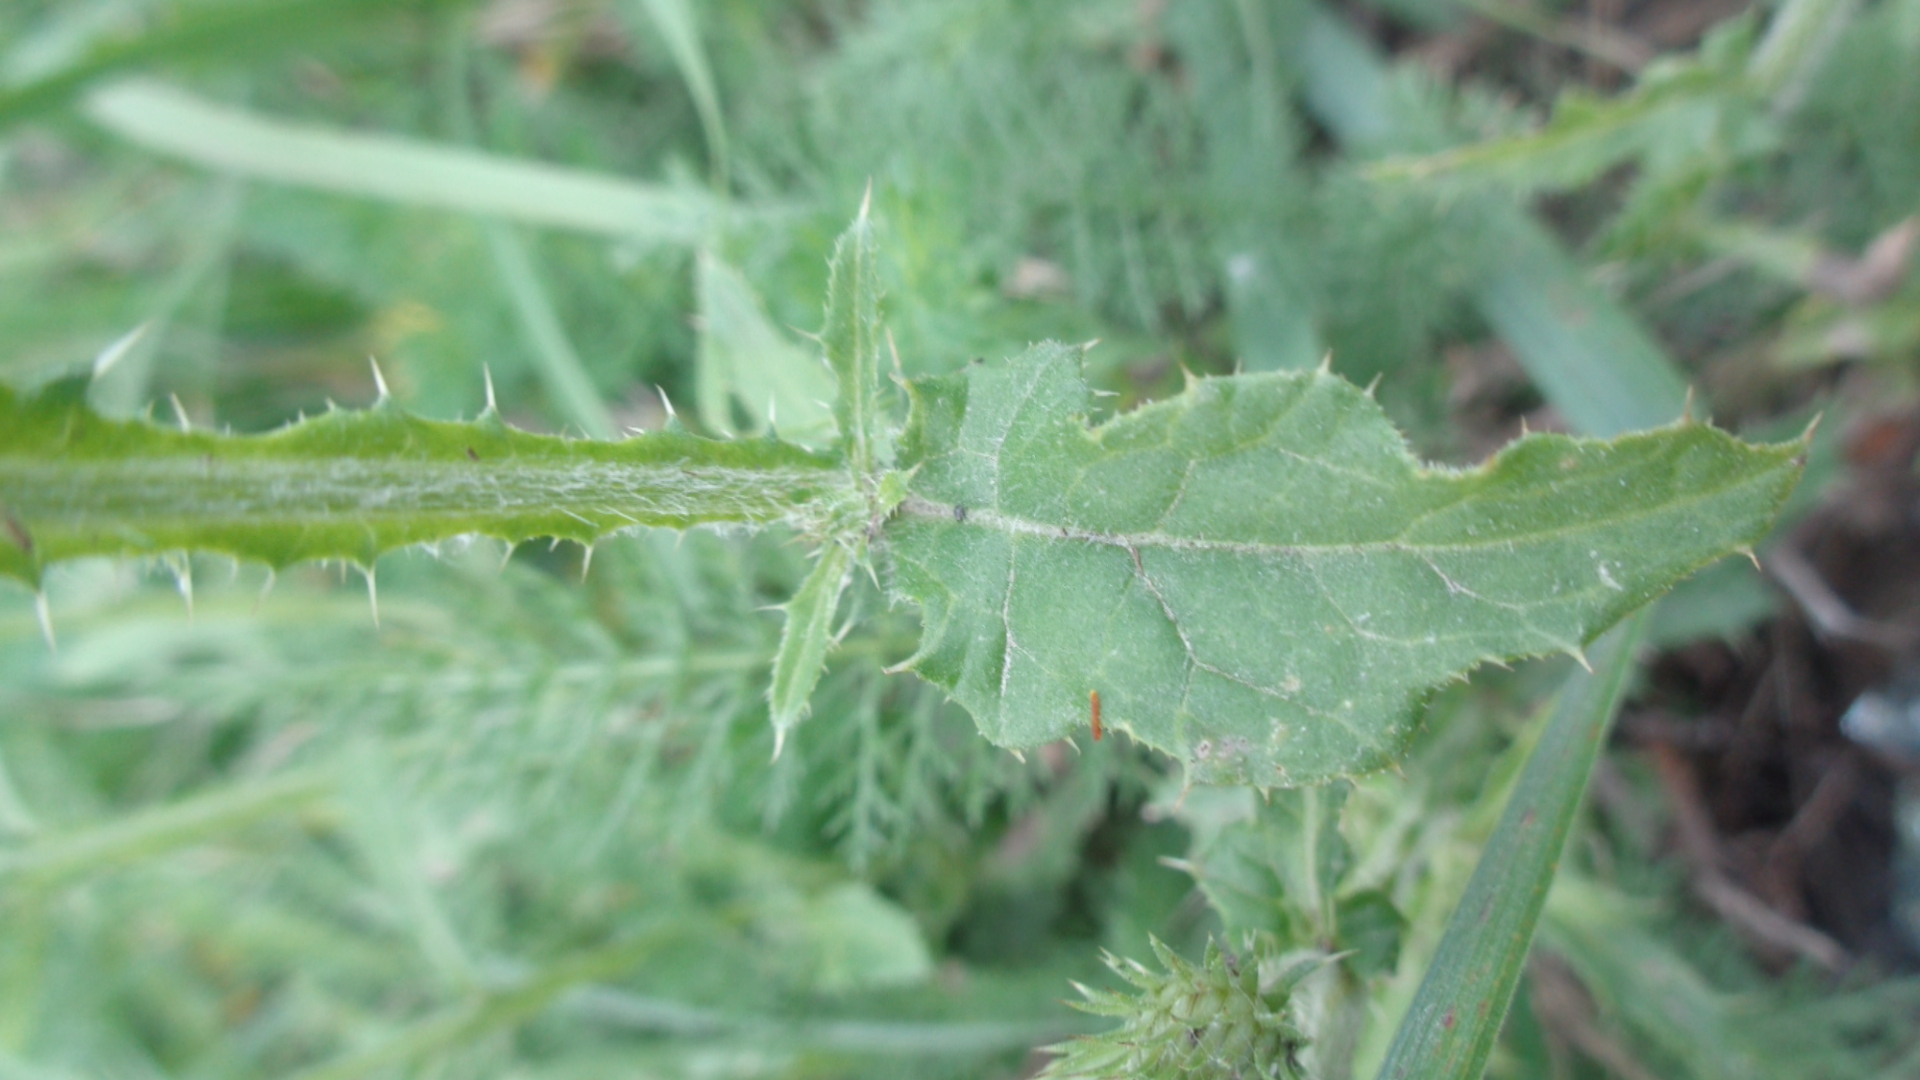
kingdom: Plantae
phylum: Tracheophyta
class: Magnoliopsida
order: Asterales
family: Asteraceae
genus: Carduus
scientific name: Carduus crispus
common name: Welted thistle
